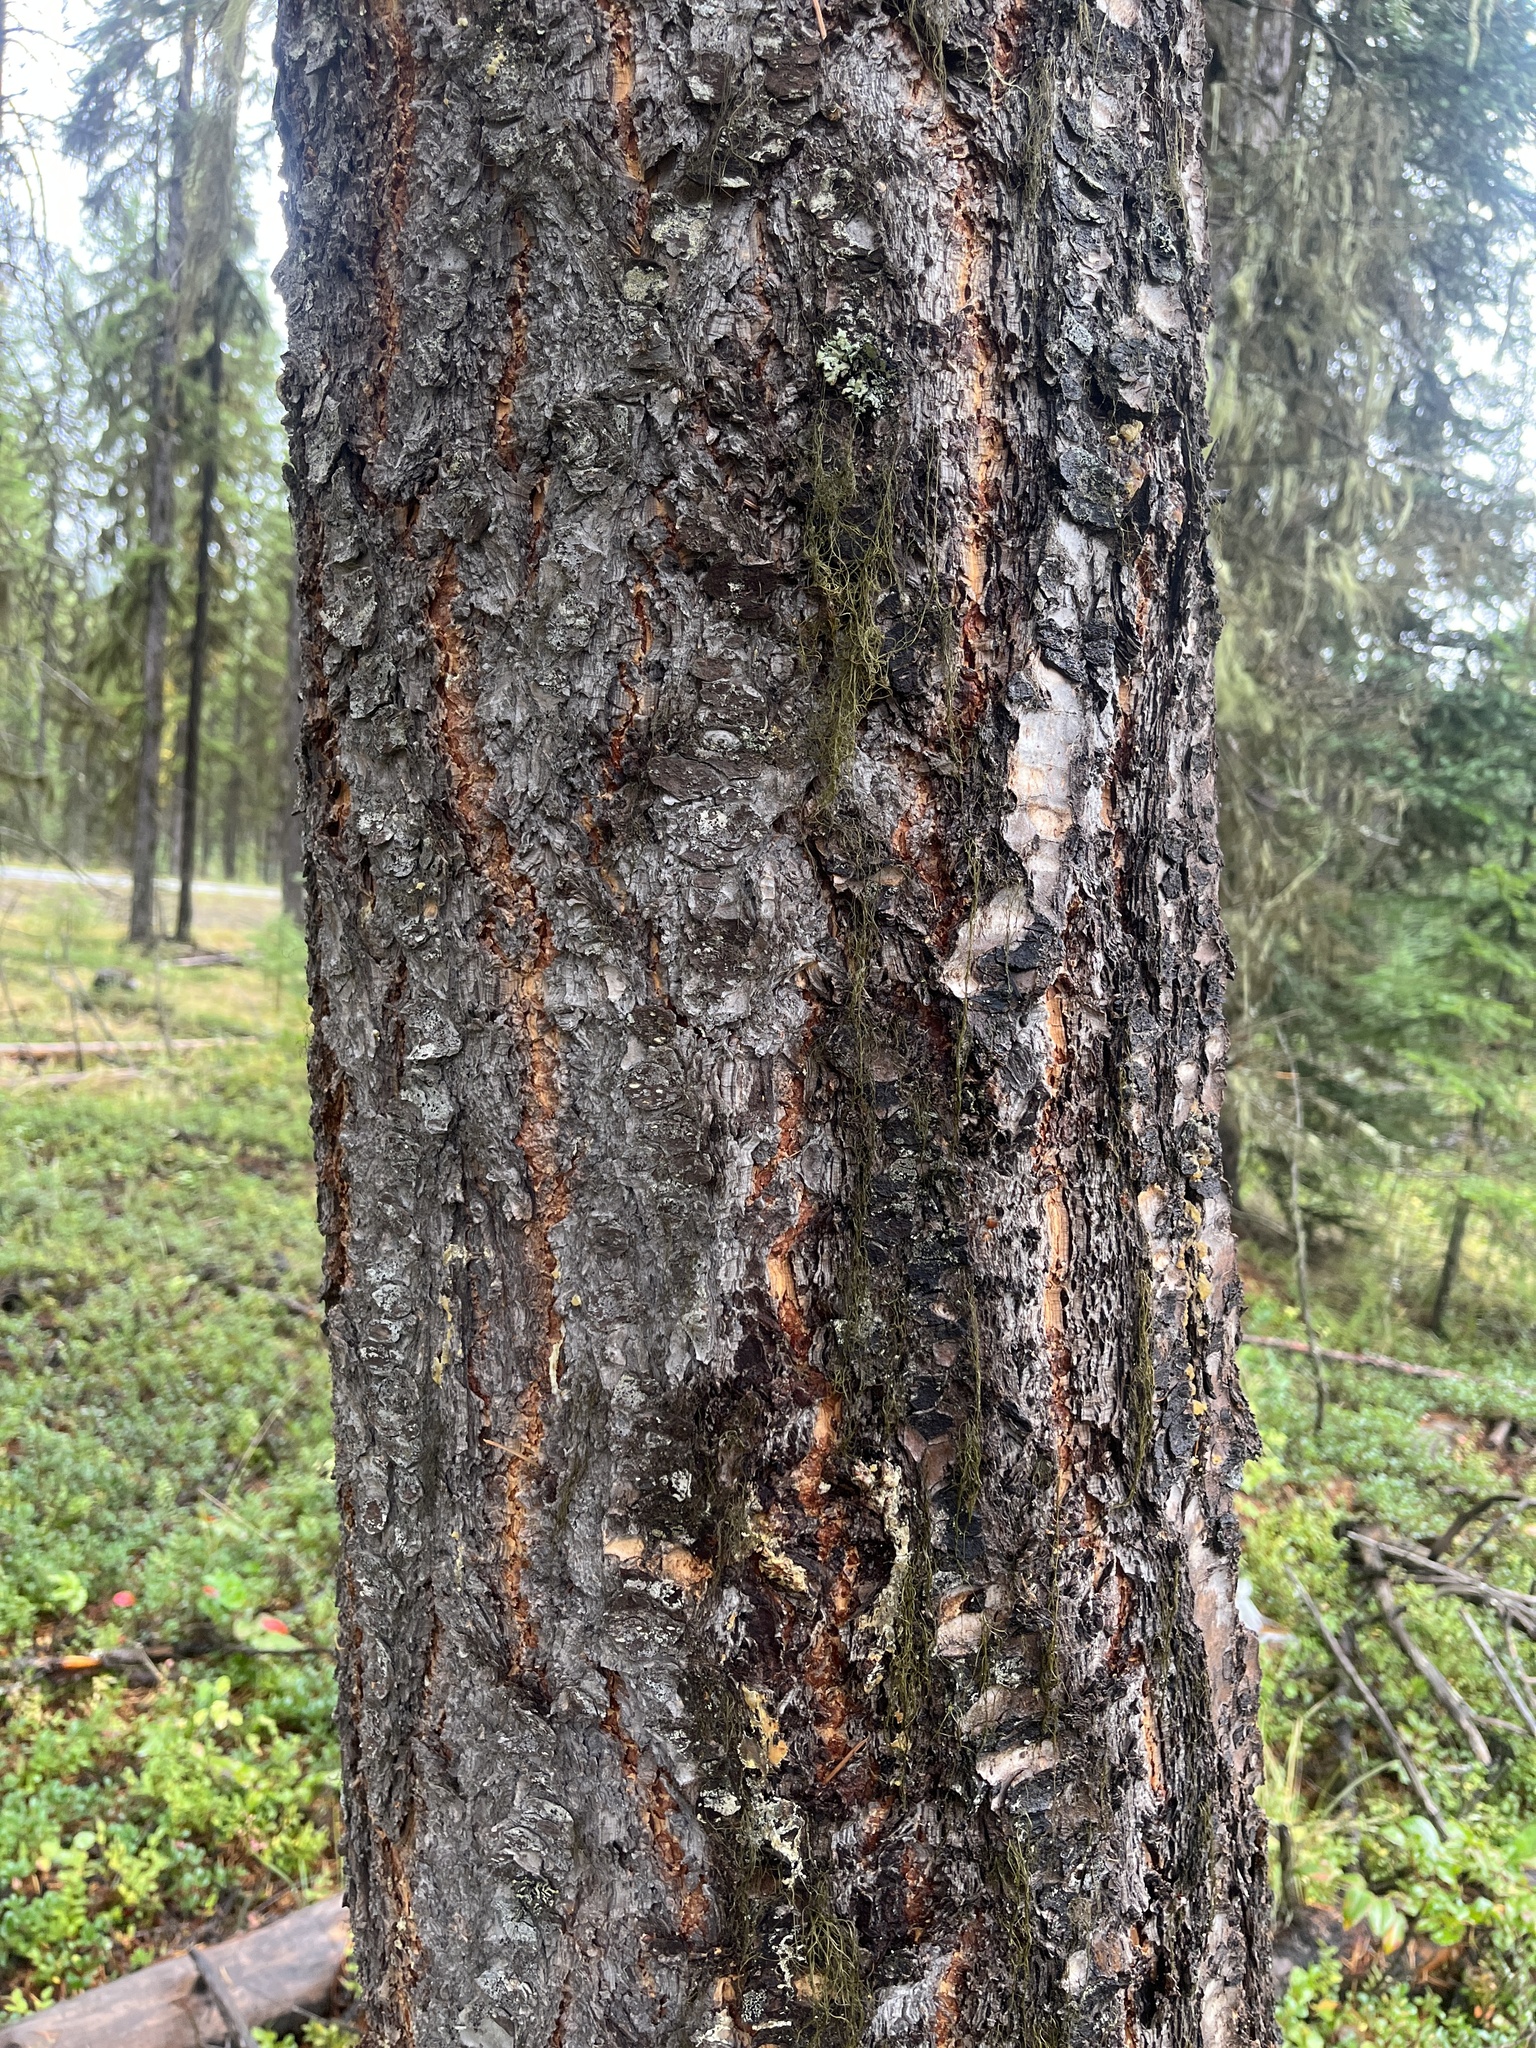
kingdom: Plantae
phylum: Tracheophyta
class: Pinopsida
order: Pinales
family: Pinaceae
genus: Pseudotsuga
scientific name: Pseudotsuga menziesii
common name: Douglas fir
